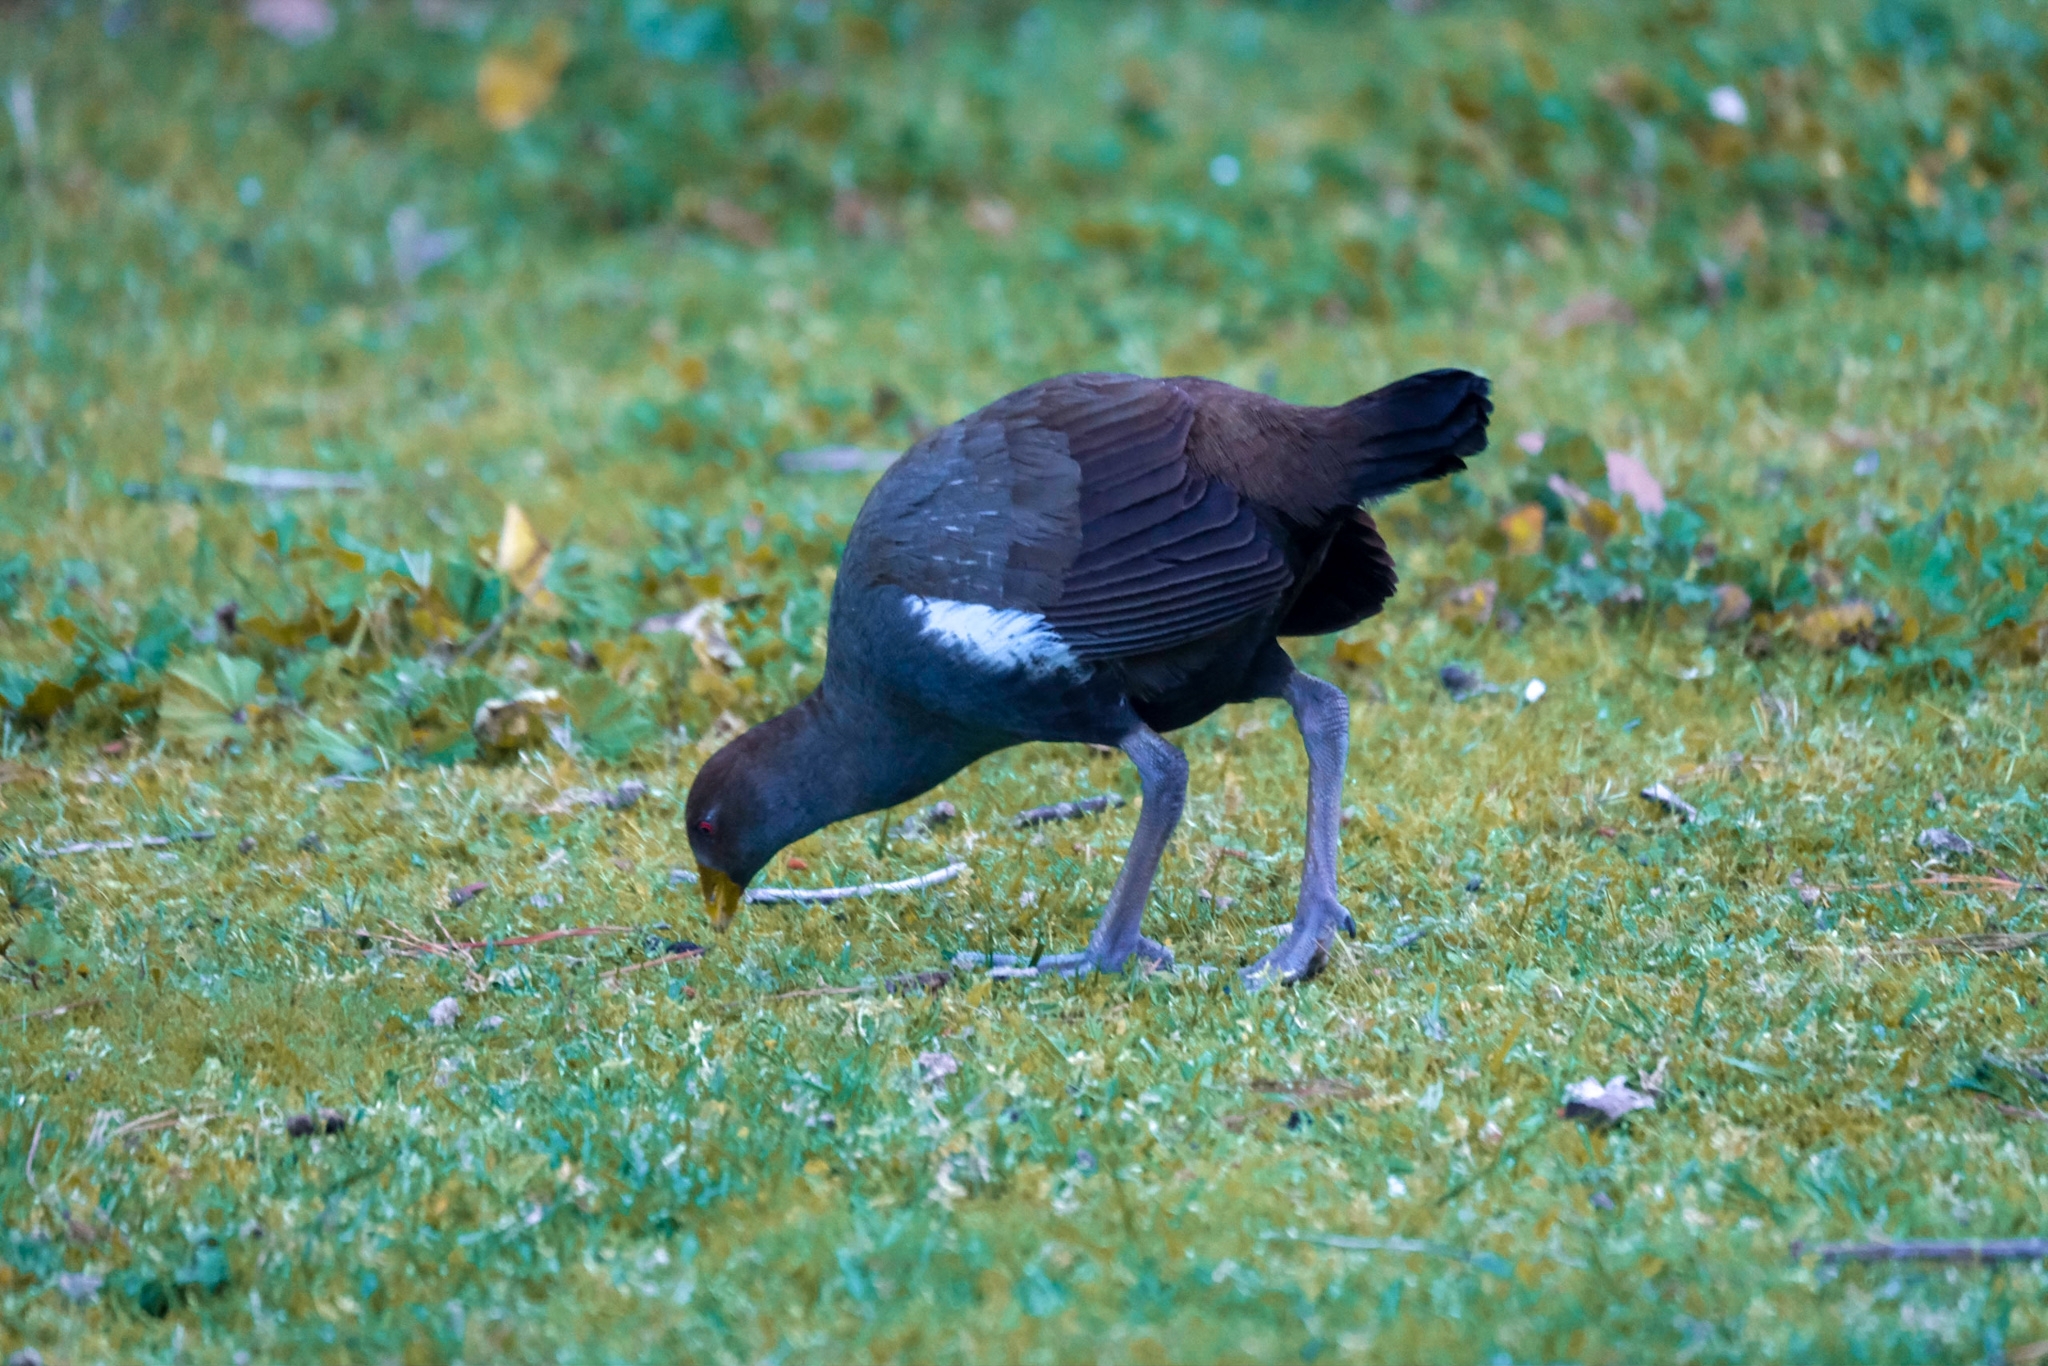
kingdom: Animalia
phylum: Chordata
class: Aves
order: Gruiformes
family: Rallidae
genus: Gallinula
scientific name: Gallinula mortierii
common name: Tasmanian nativehen
